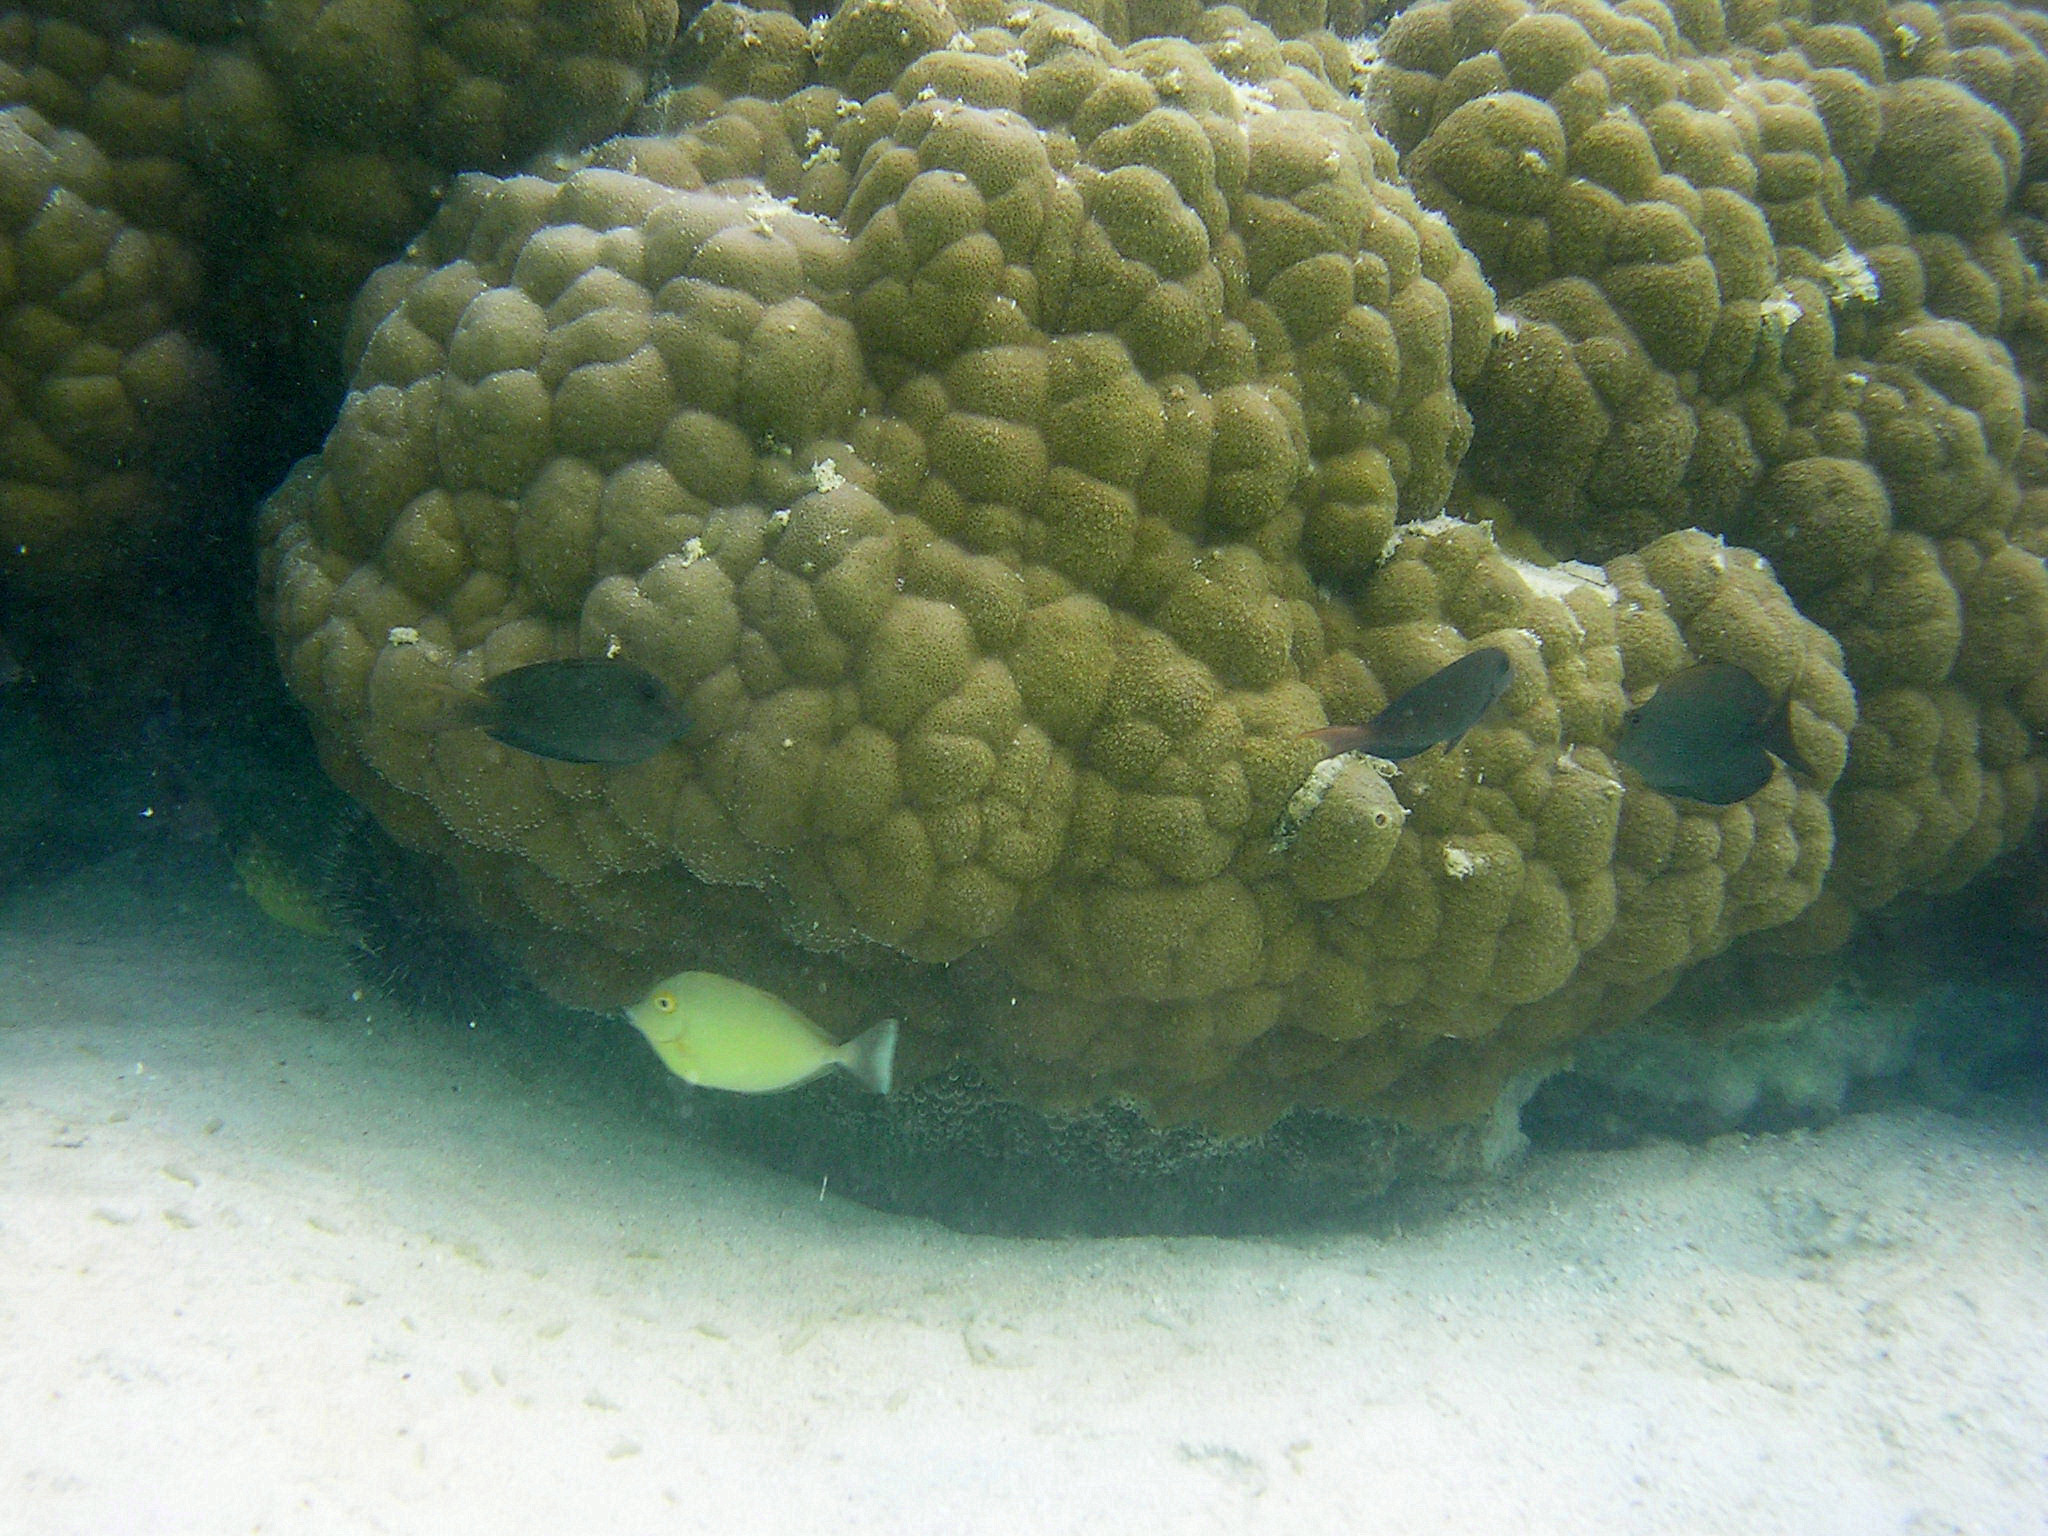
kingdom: Animalia
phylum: Chordata
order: Perciformes
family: Acanthuridae
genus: Naso
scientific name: Naso unicornis
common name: Bluespine unicornfish
